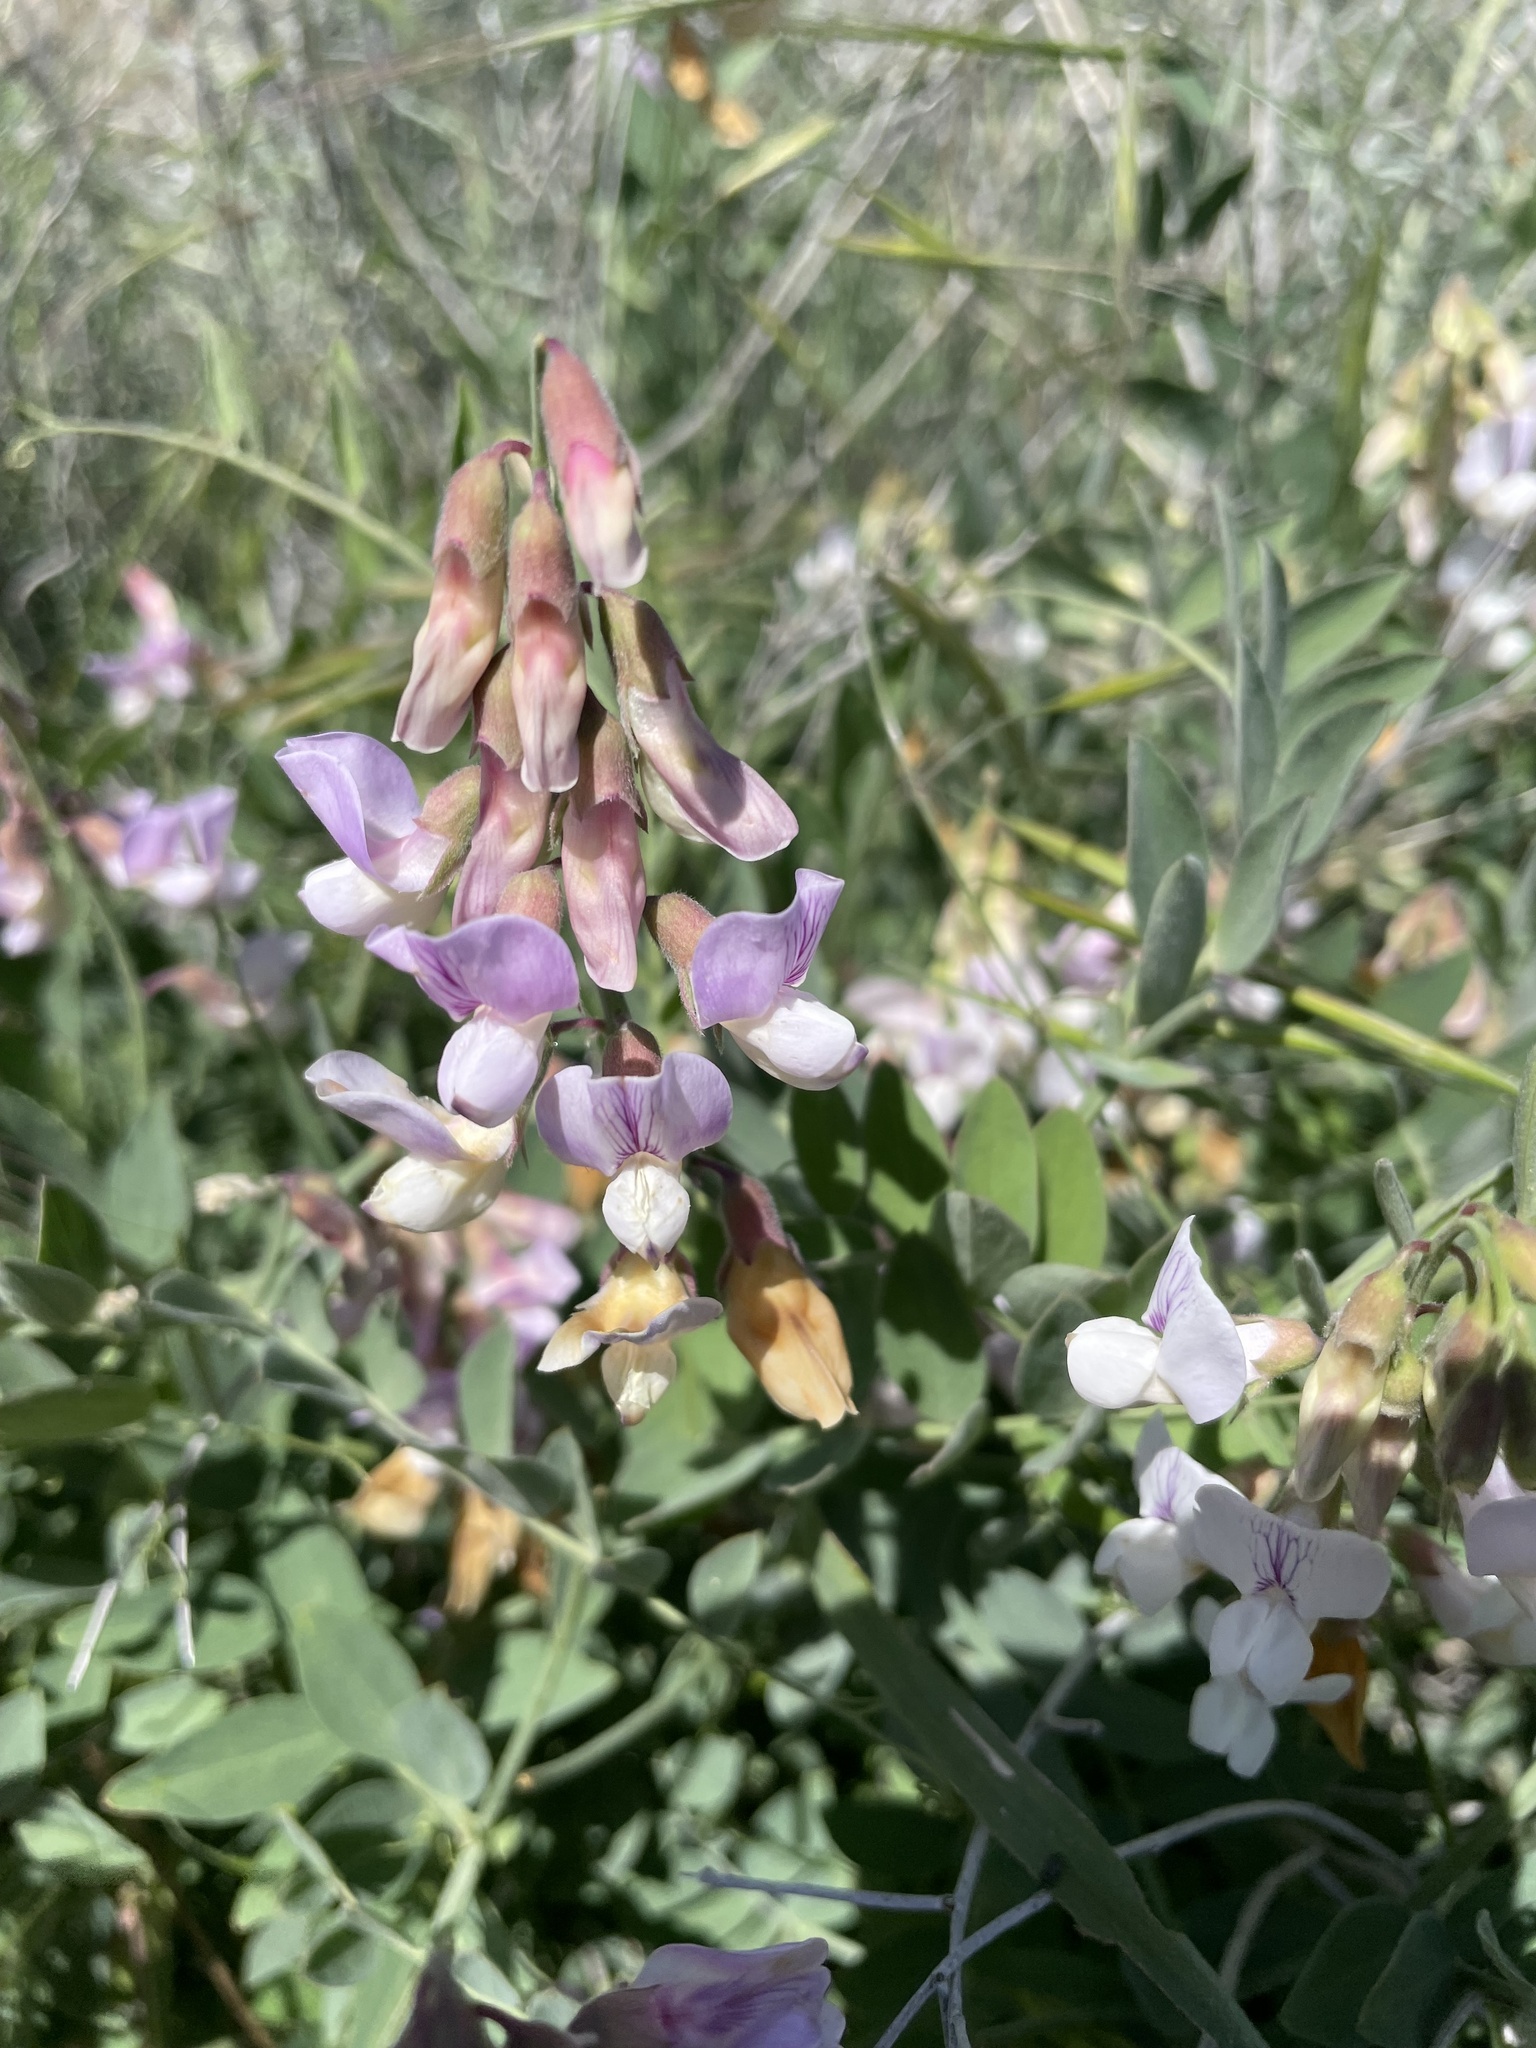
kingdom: Plantae
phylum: Tracheophyta
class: Magnoliopsida
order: Fabales
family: Fabaceae
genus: Lathyrus
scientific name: Lathyrus vestitus
